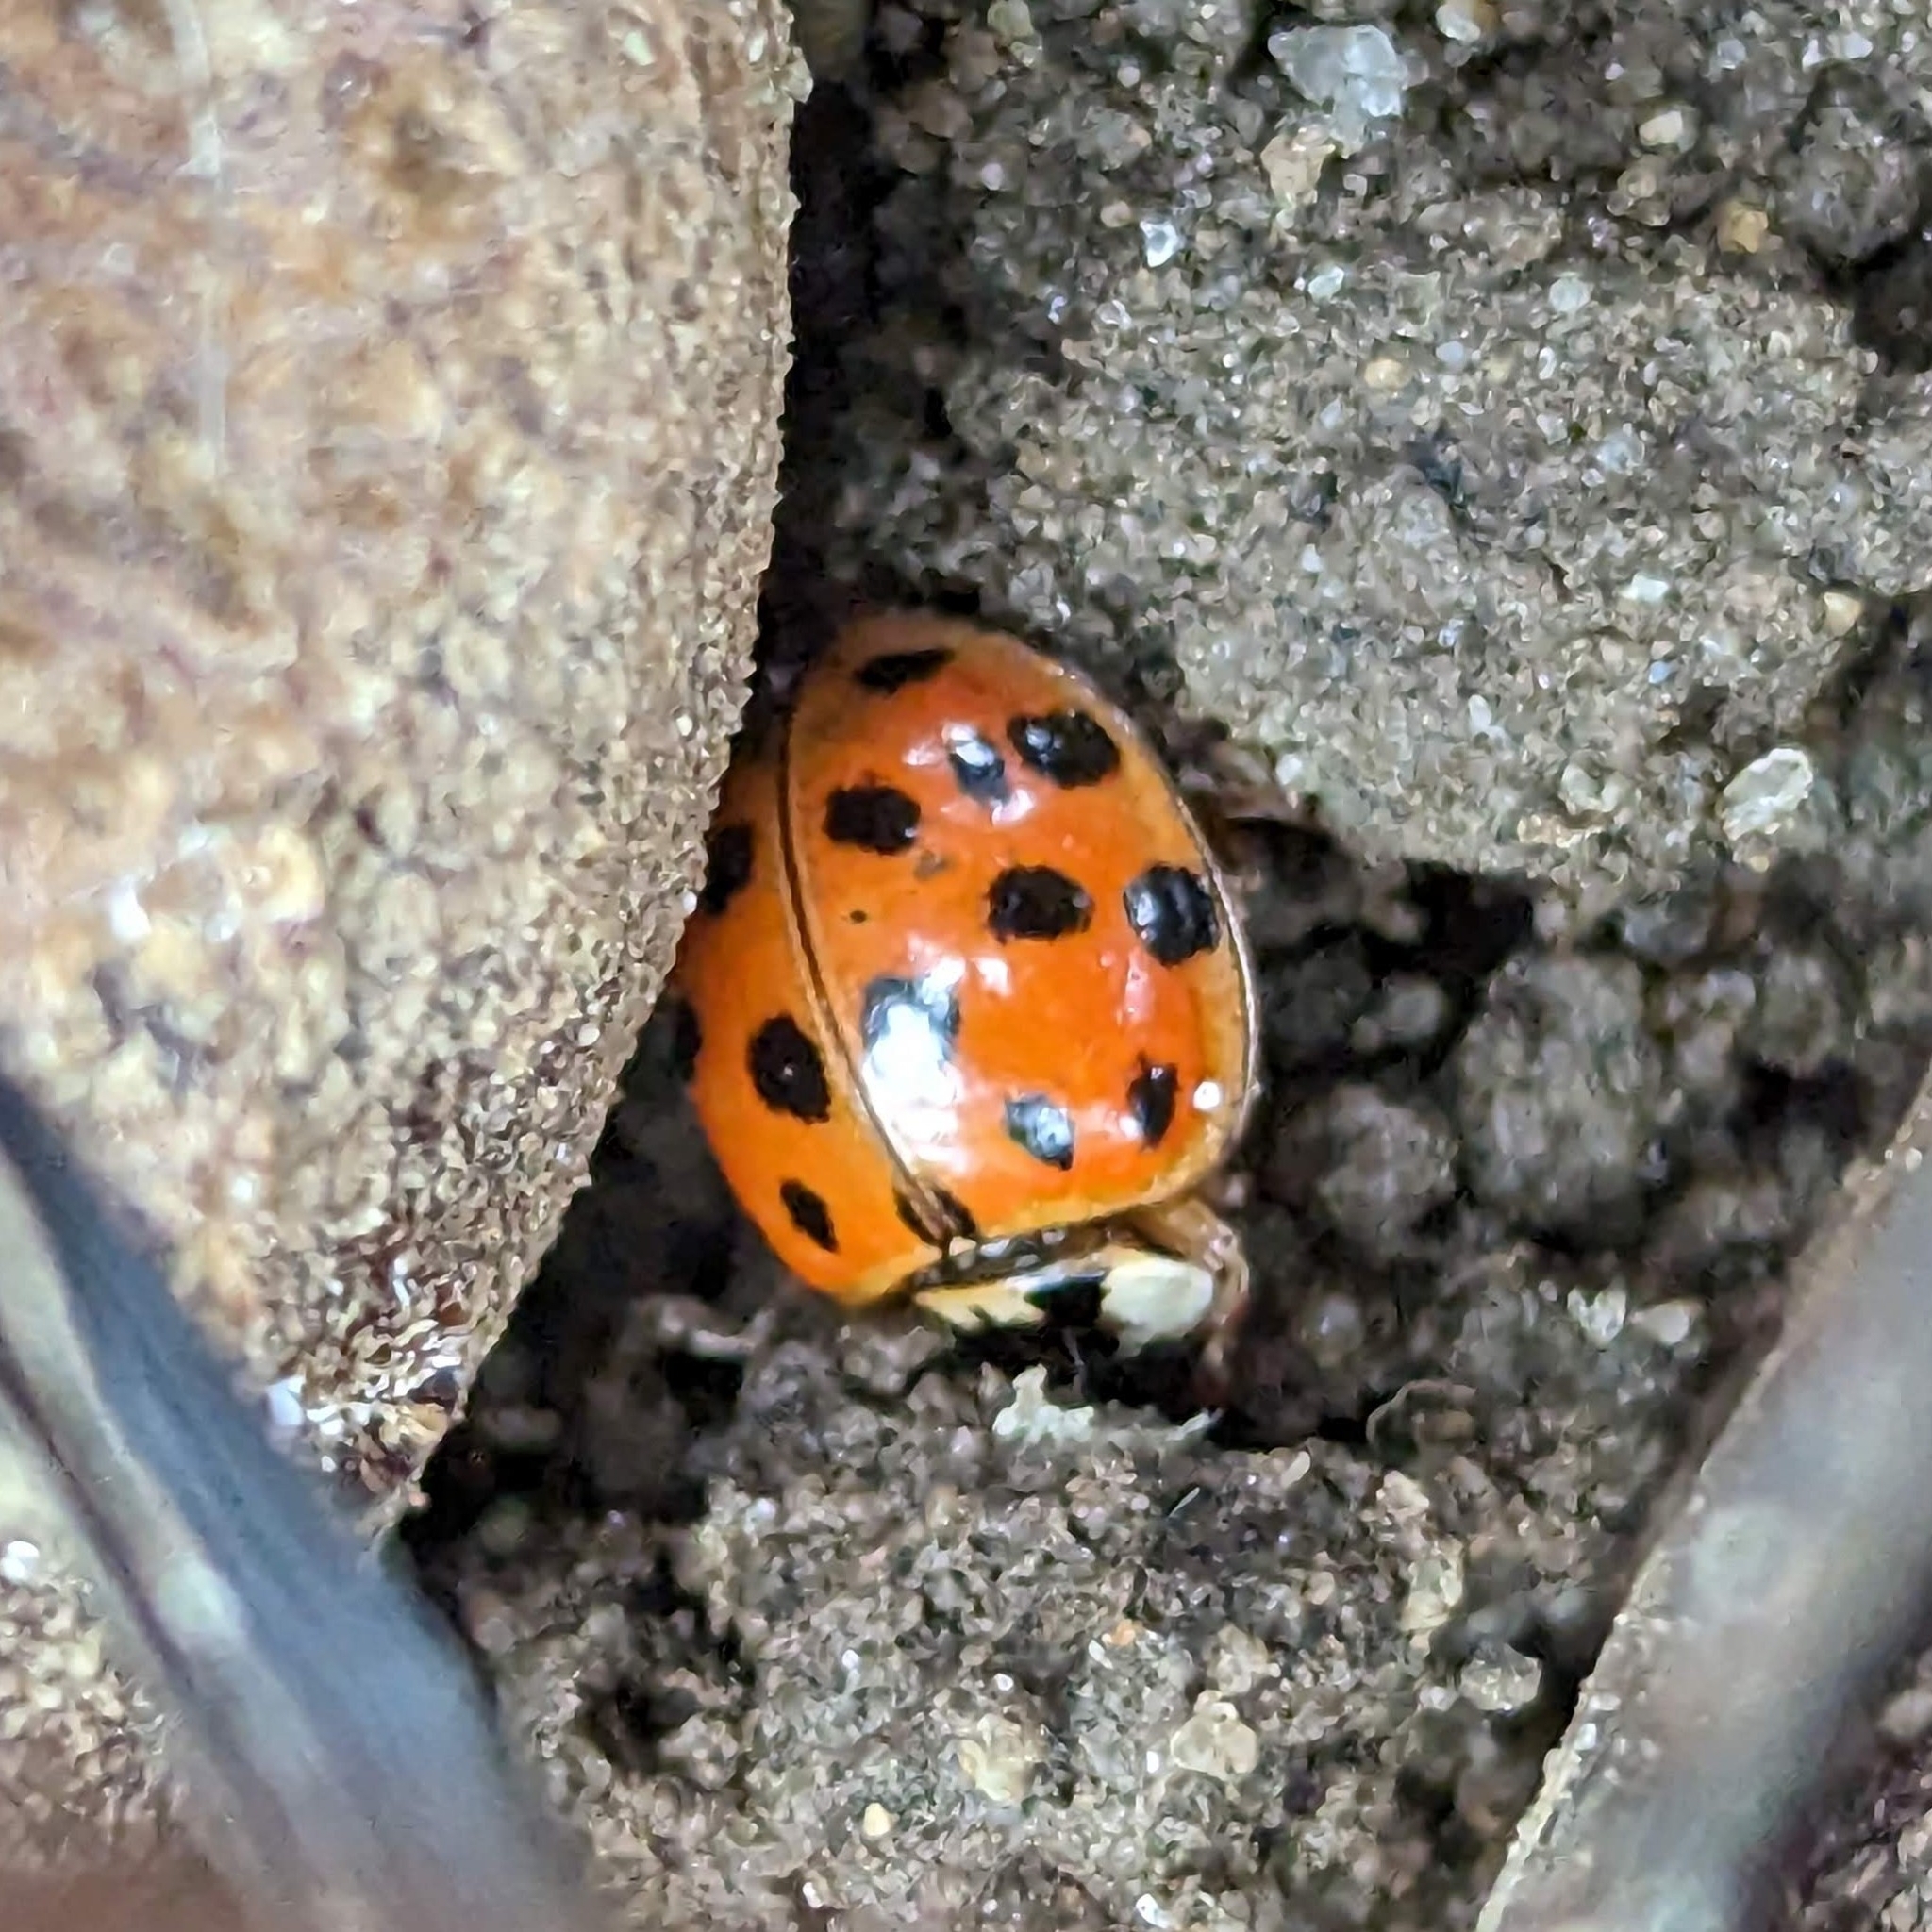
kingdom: Animalia
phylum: Arthropoda
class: Insecta
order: Coleoptera
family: Coccinellidae
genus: Harmonia
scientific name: Harmonia axyridis
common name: Harlequin ladybird
